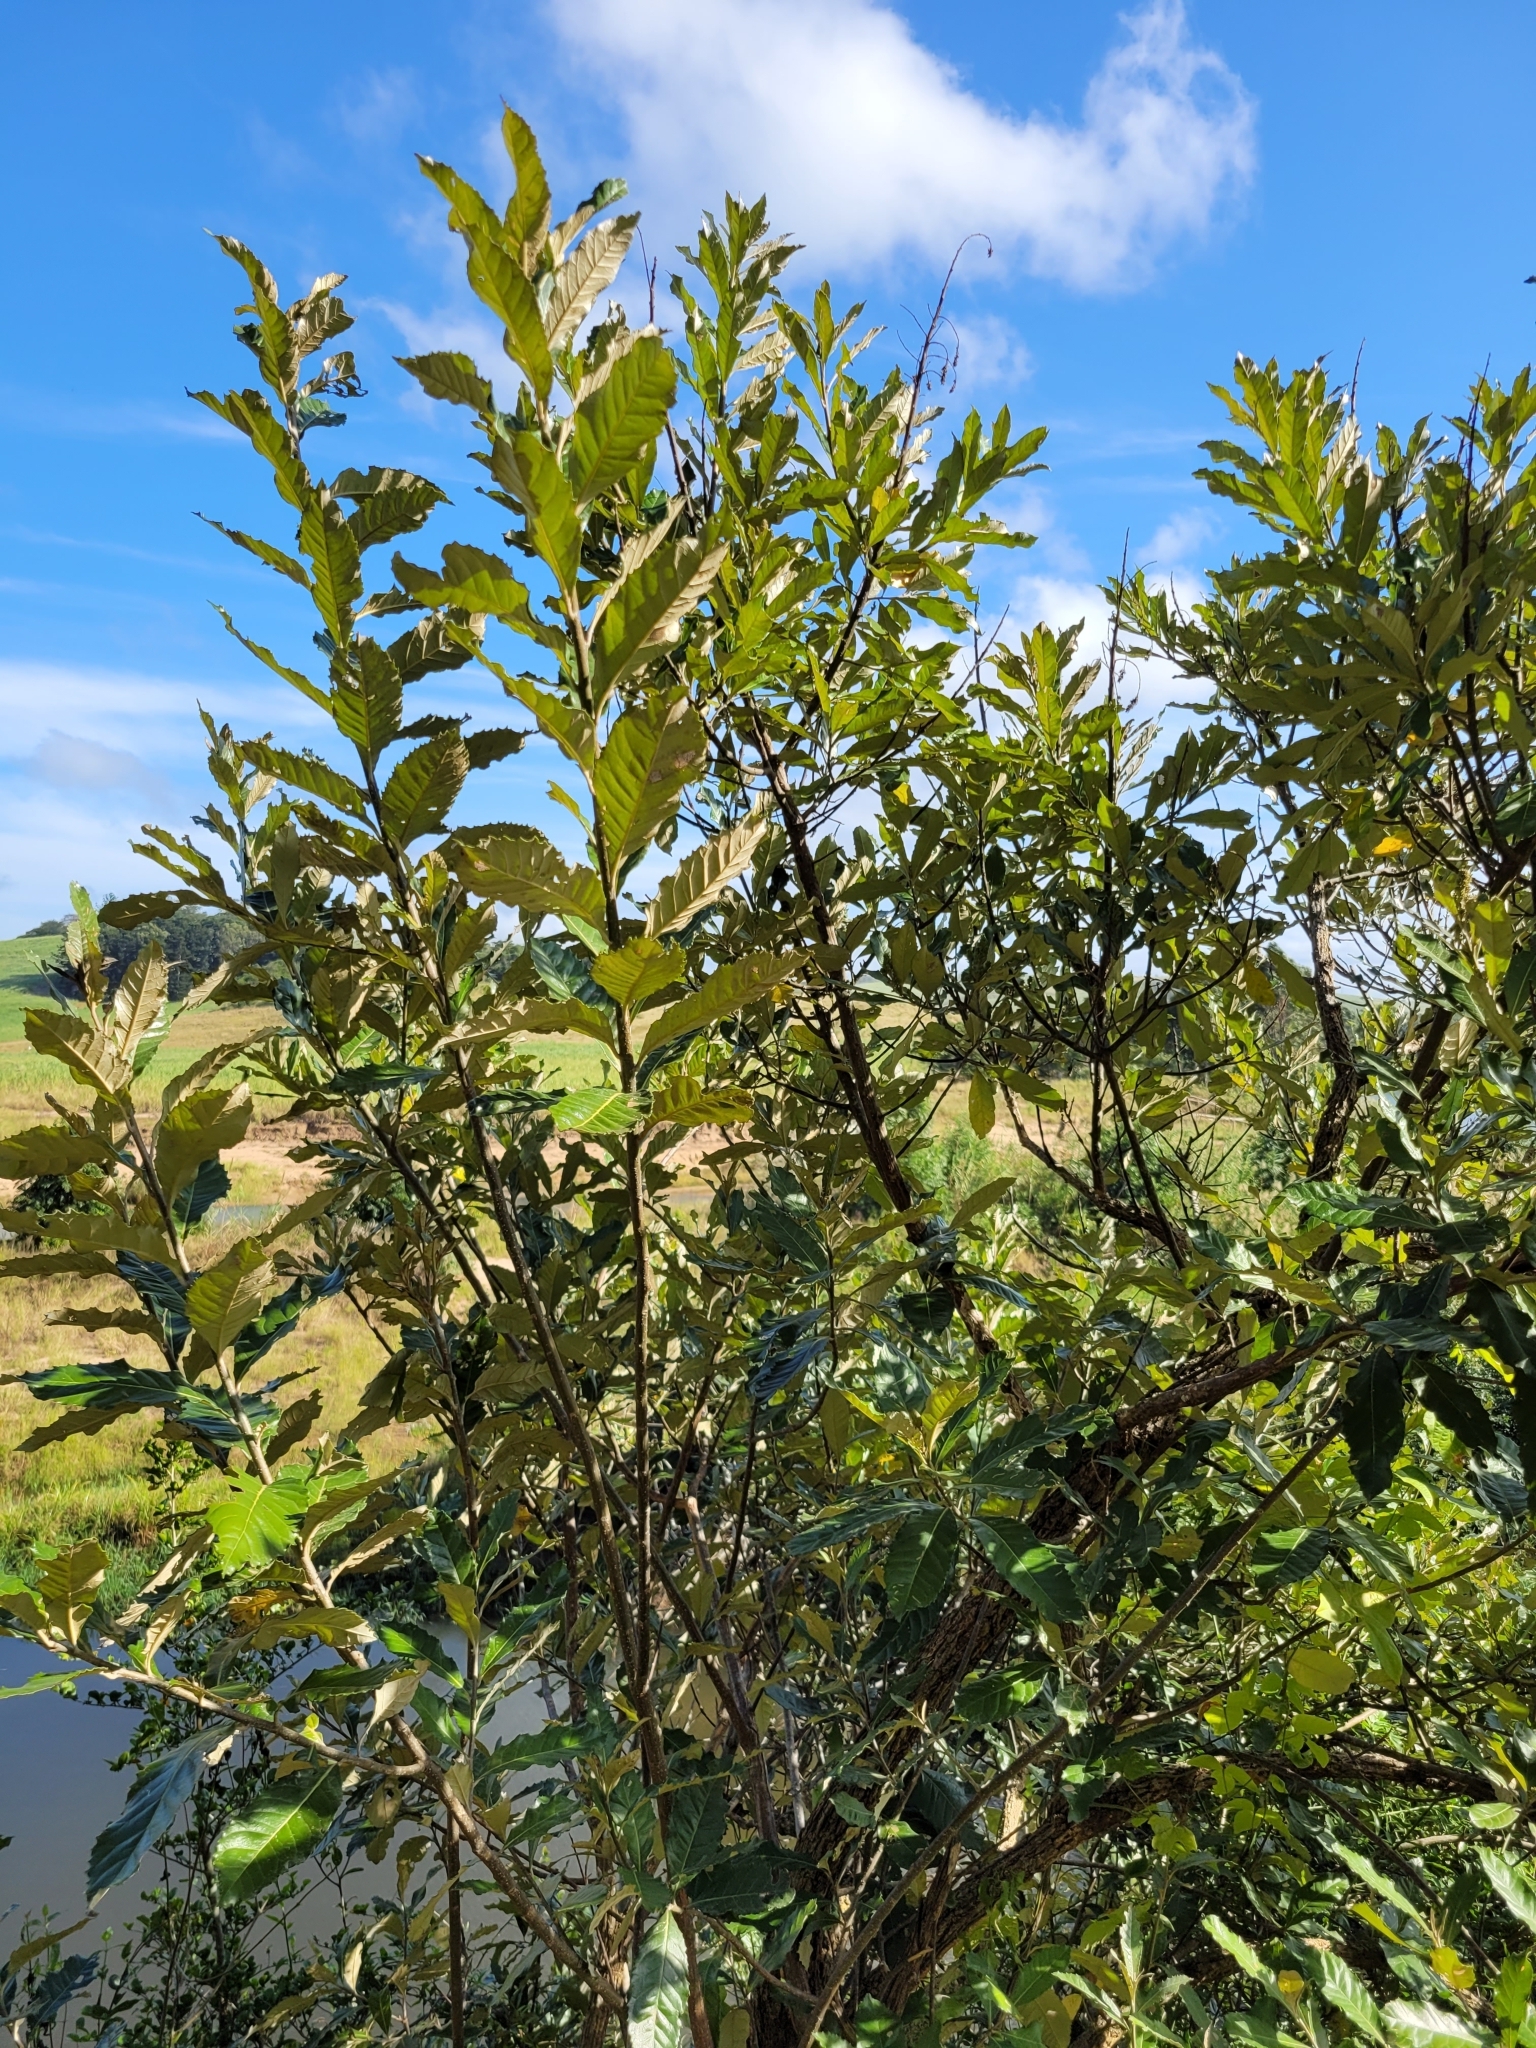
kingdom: Plantae
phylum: Tracheophyta
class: Magnoliopsida
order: Asterales
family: Asteraceae
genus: Brachylaena
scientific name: Brachylaena discolor
